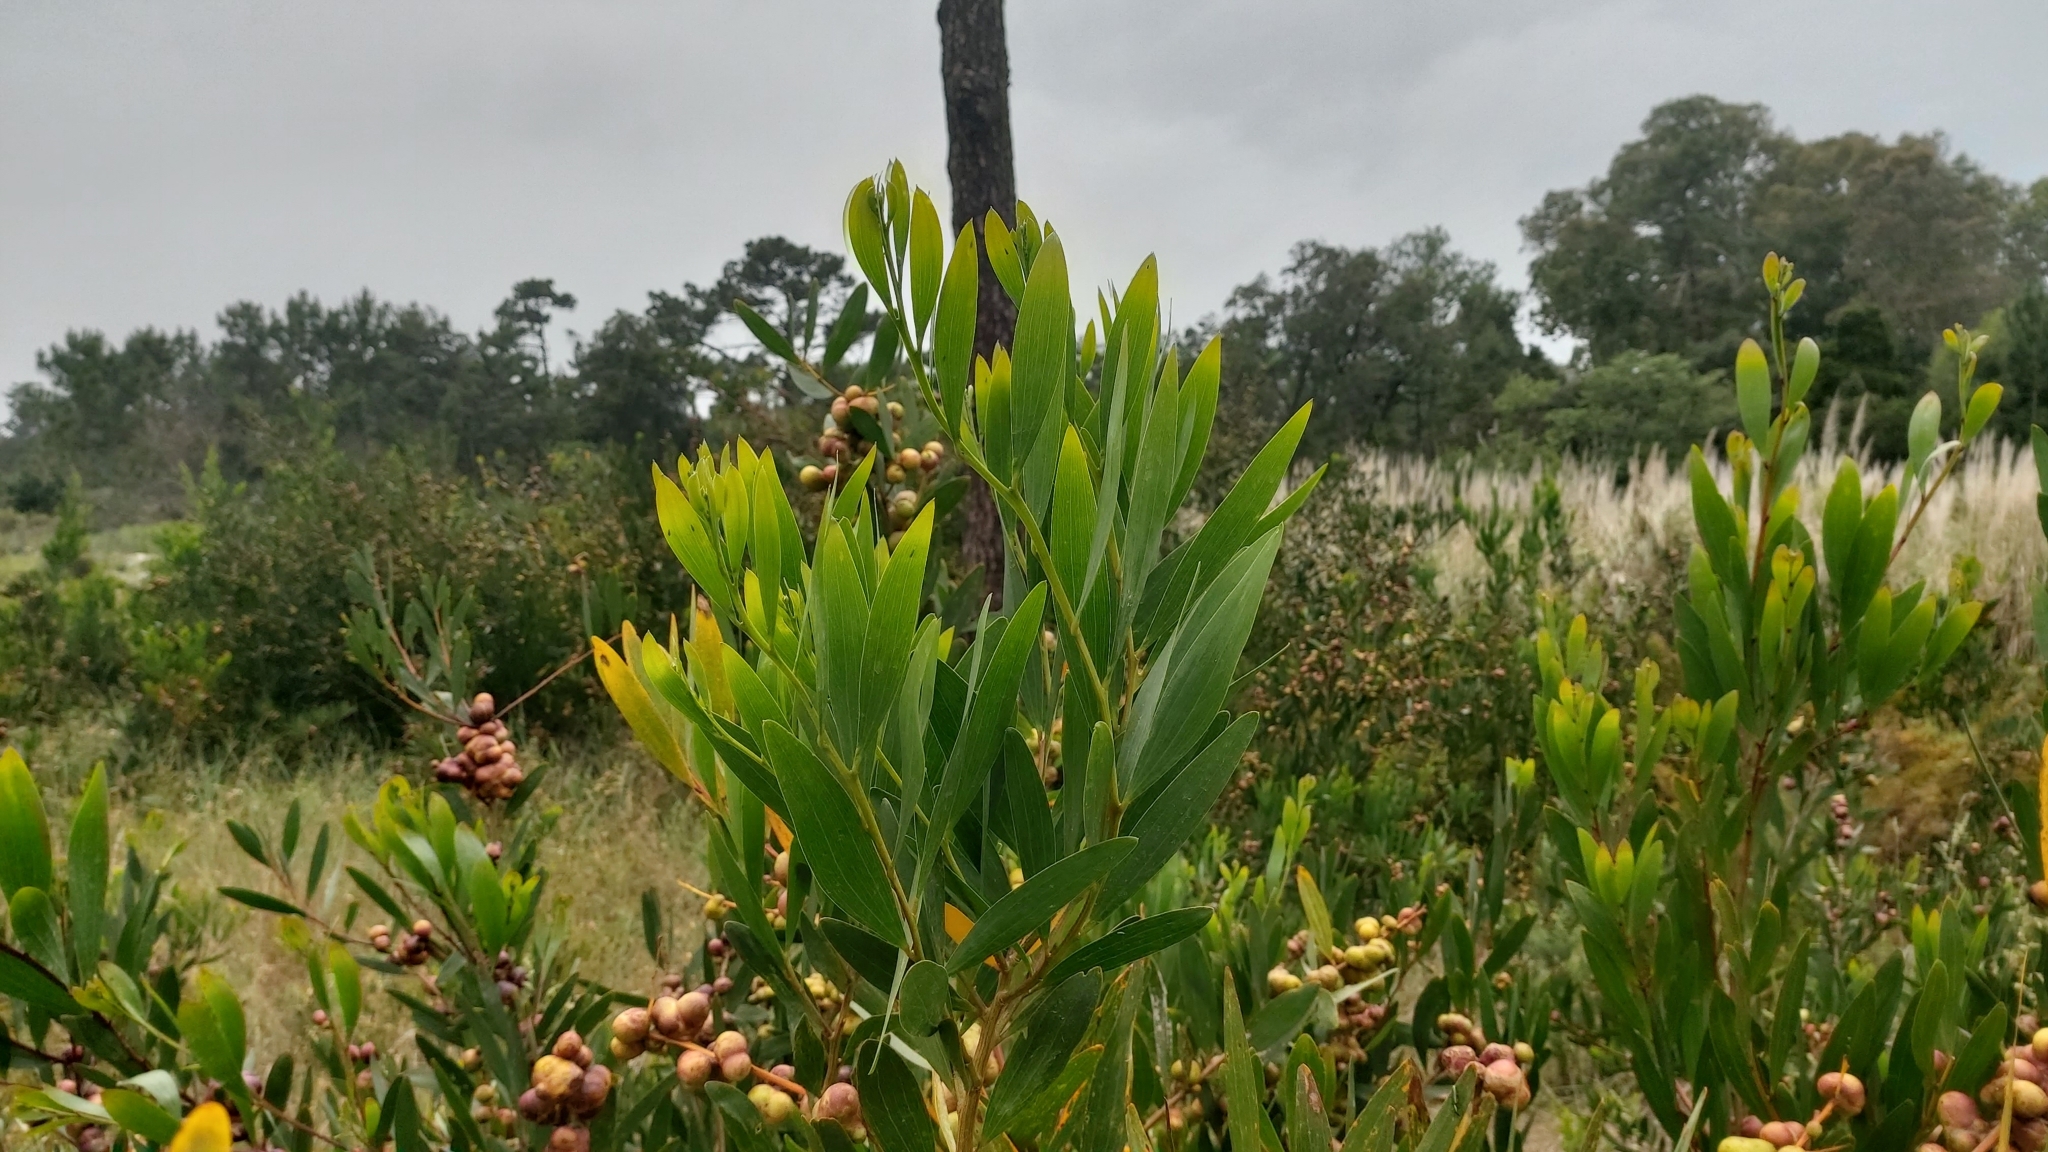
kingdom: Plantae
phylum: Tracheophyta
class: Magnoliopsida
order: Fabales
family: Fabaceae
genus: Acacia
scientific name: Acacia longifolia
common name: Sydney golden wattle
